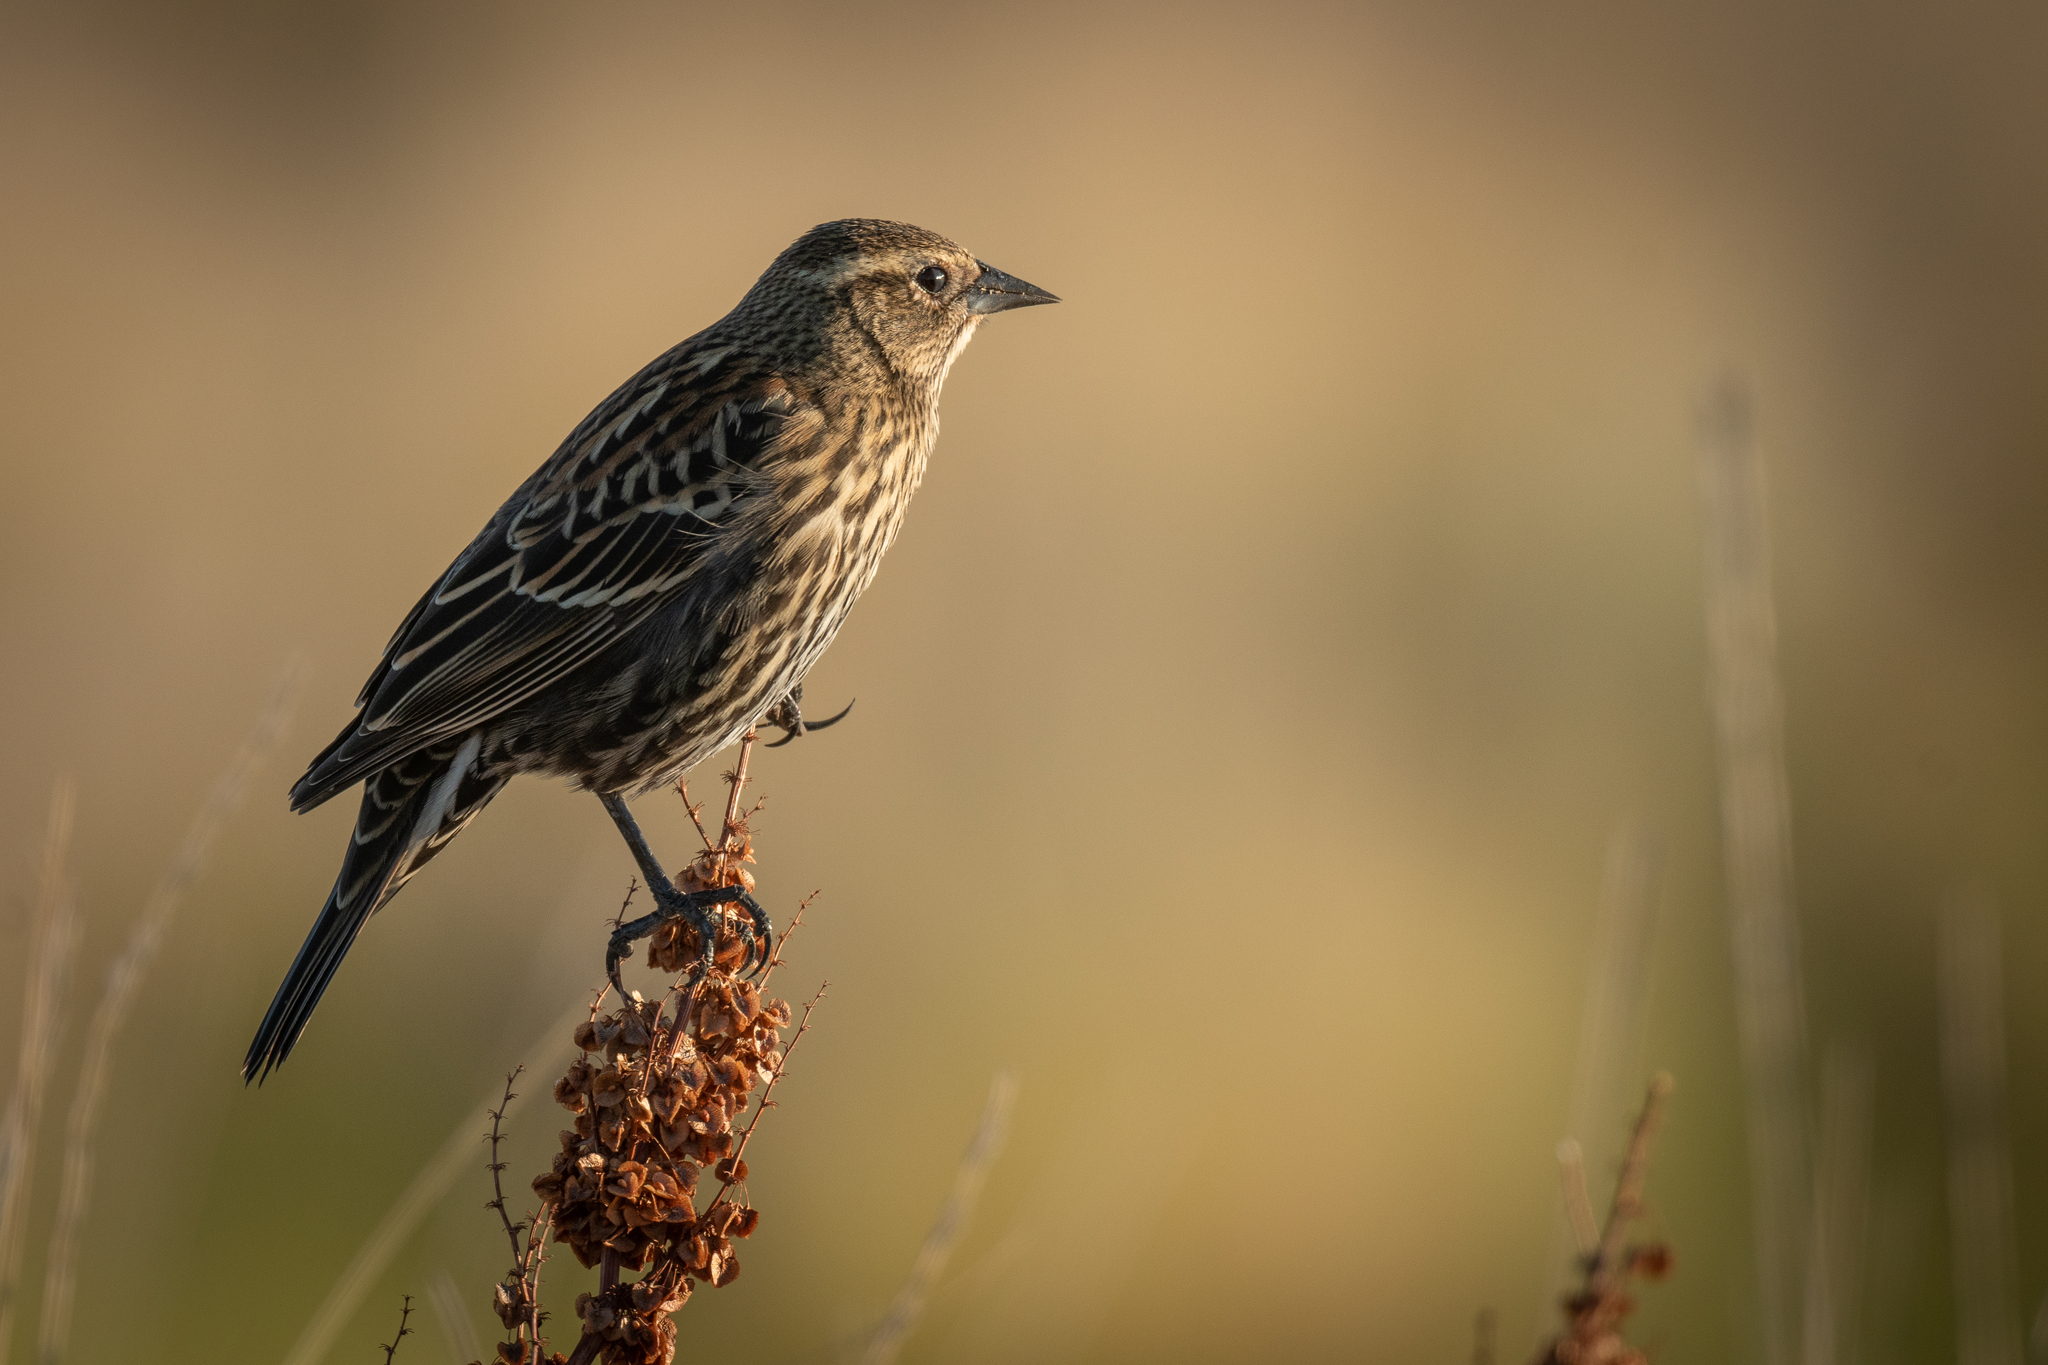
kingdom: Animalia
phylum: Chordata
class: Aves
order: Passeriformes
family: Icteridae
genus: Agelaius
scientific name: Agelaius phoeniceus
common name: Red-winged blackbird
